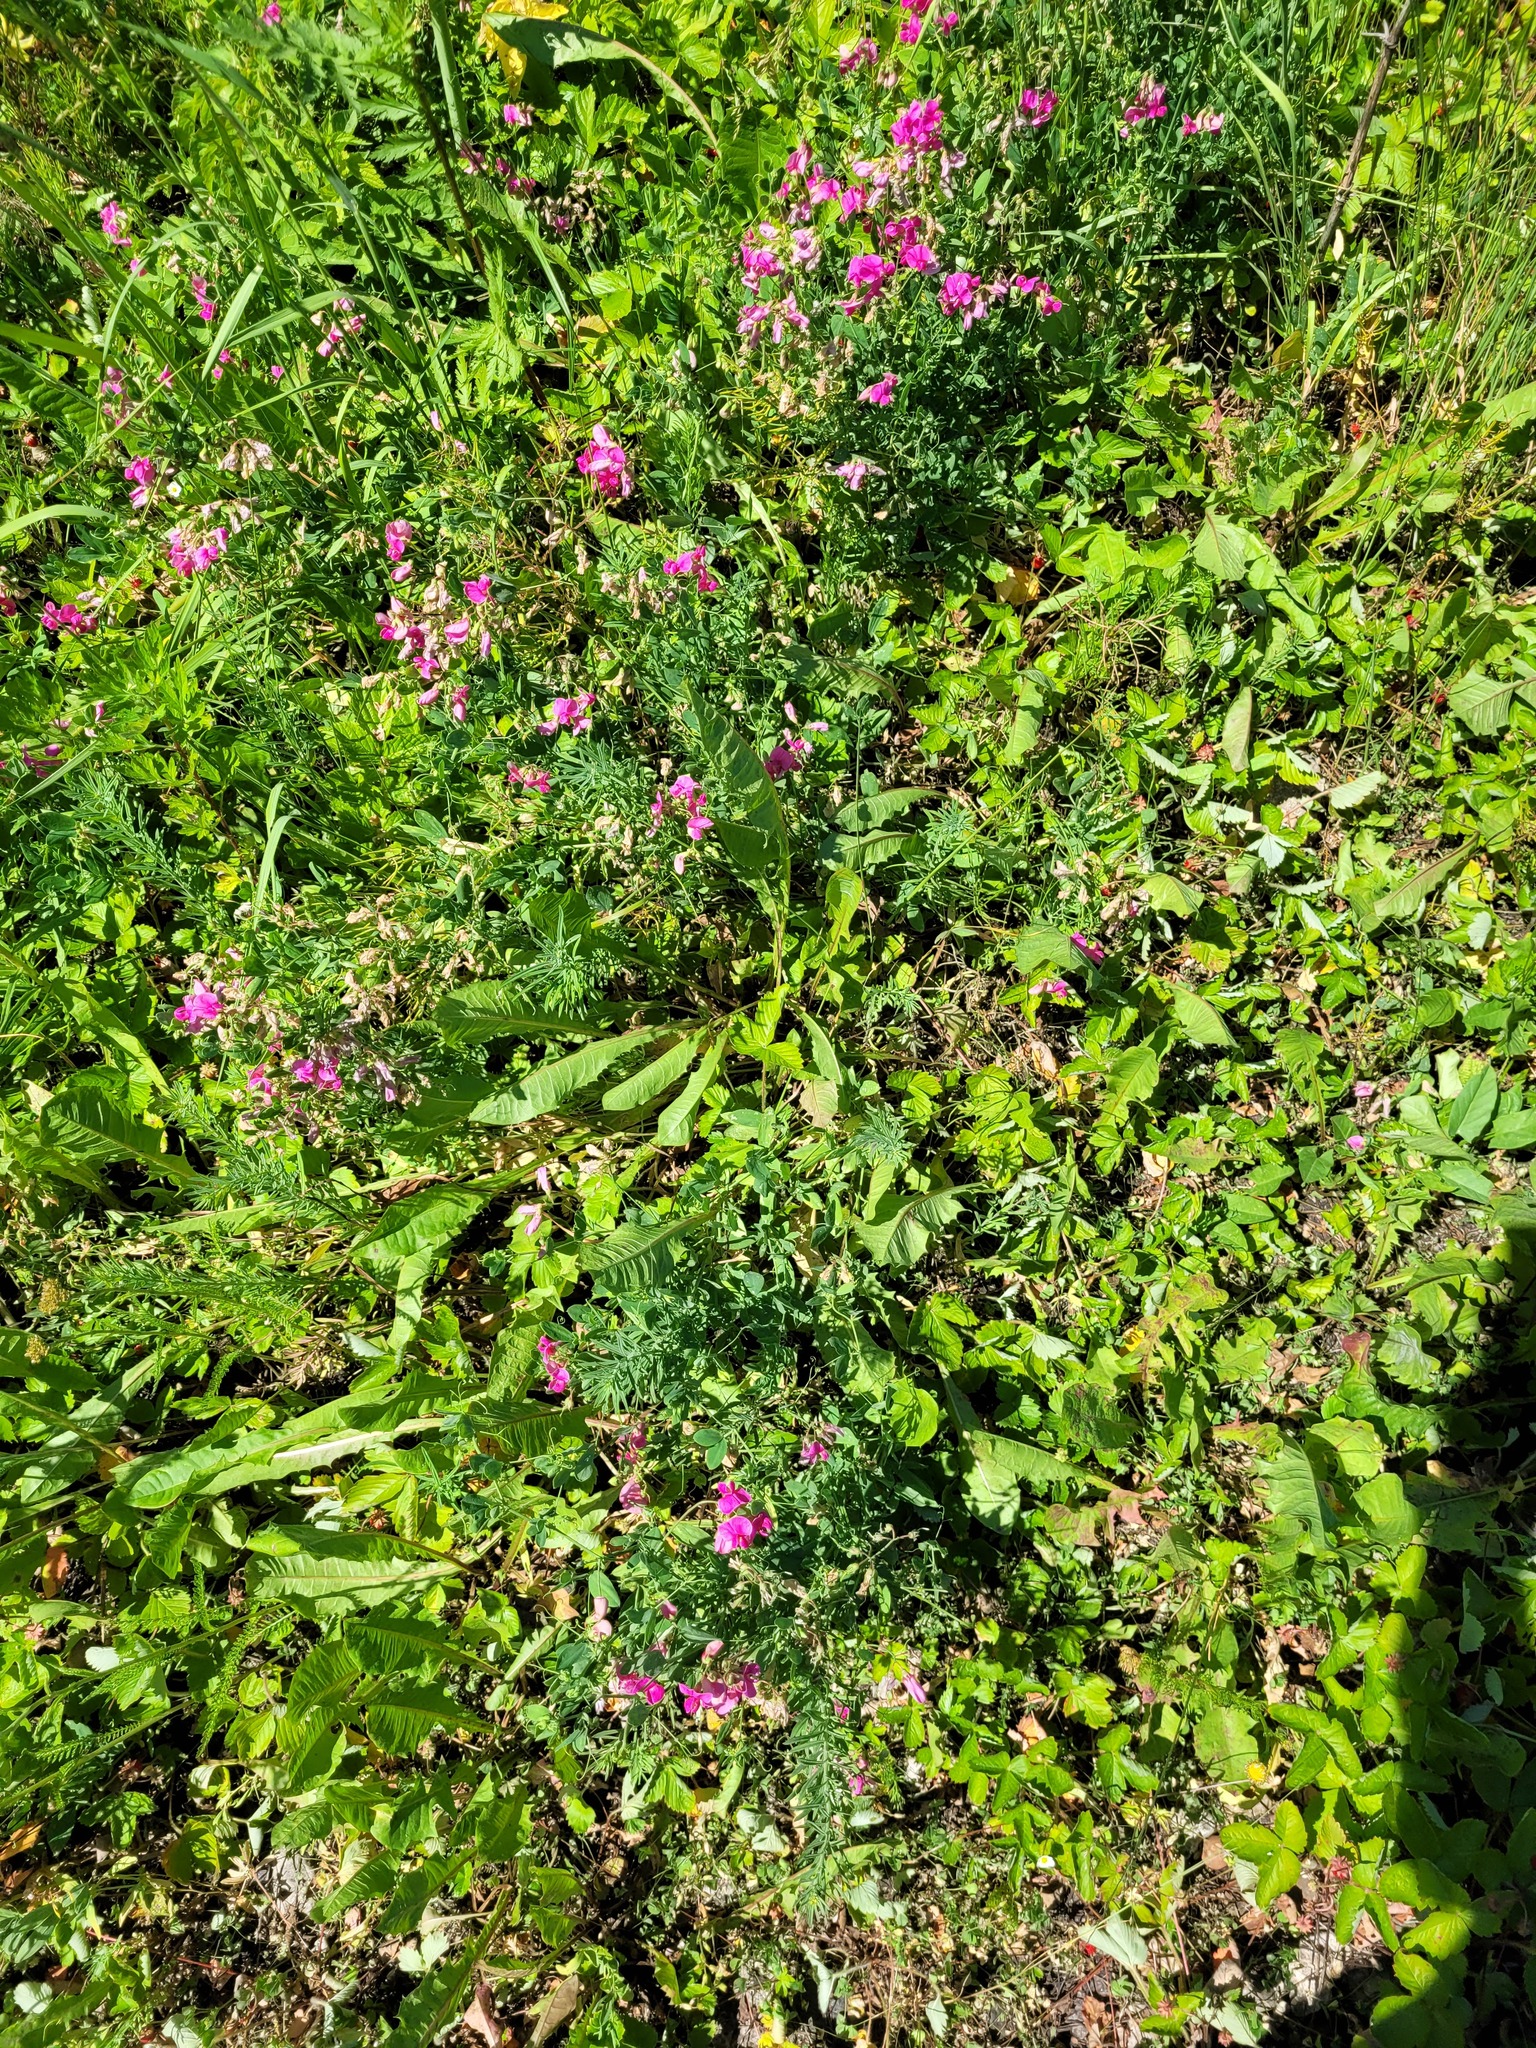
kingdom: Plantae
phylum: Tracheophyta
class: Magnoliopsida
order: Fabales
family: Fabaceae
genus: Lathyrus
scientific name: Lathyrus tuberosus
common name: Tuberous pea
